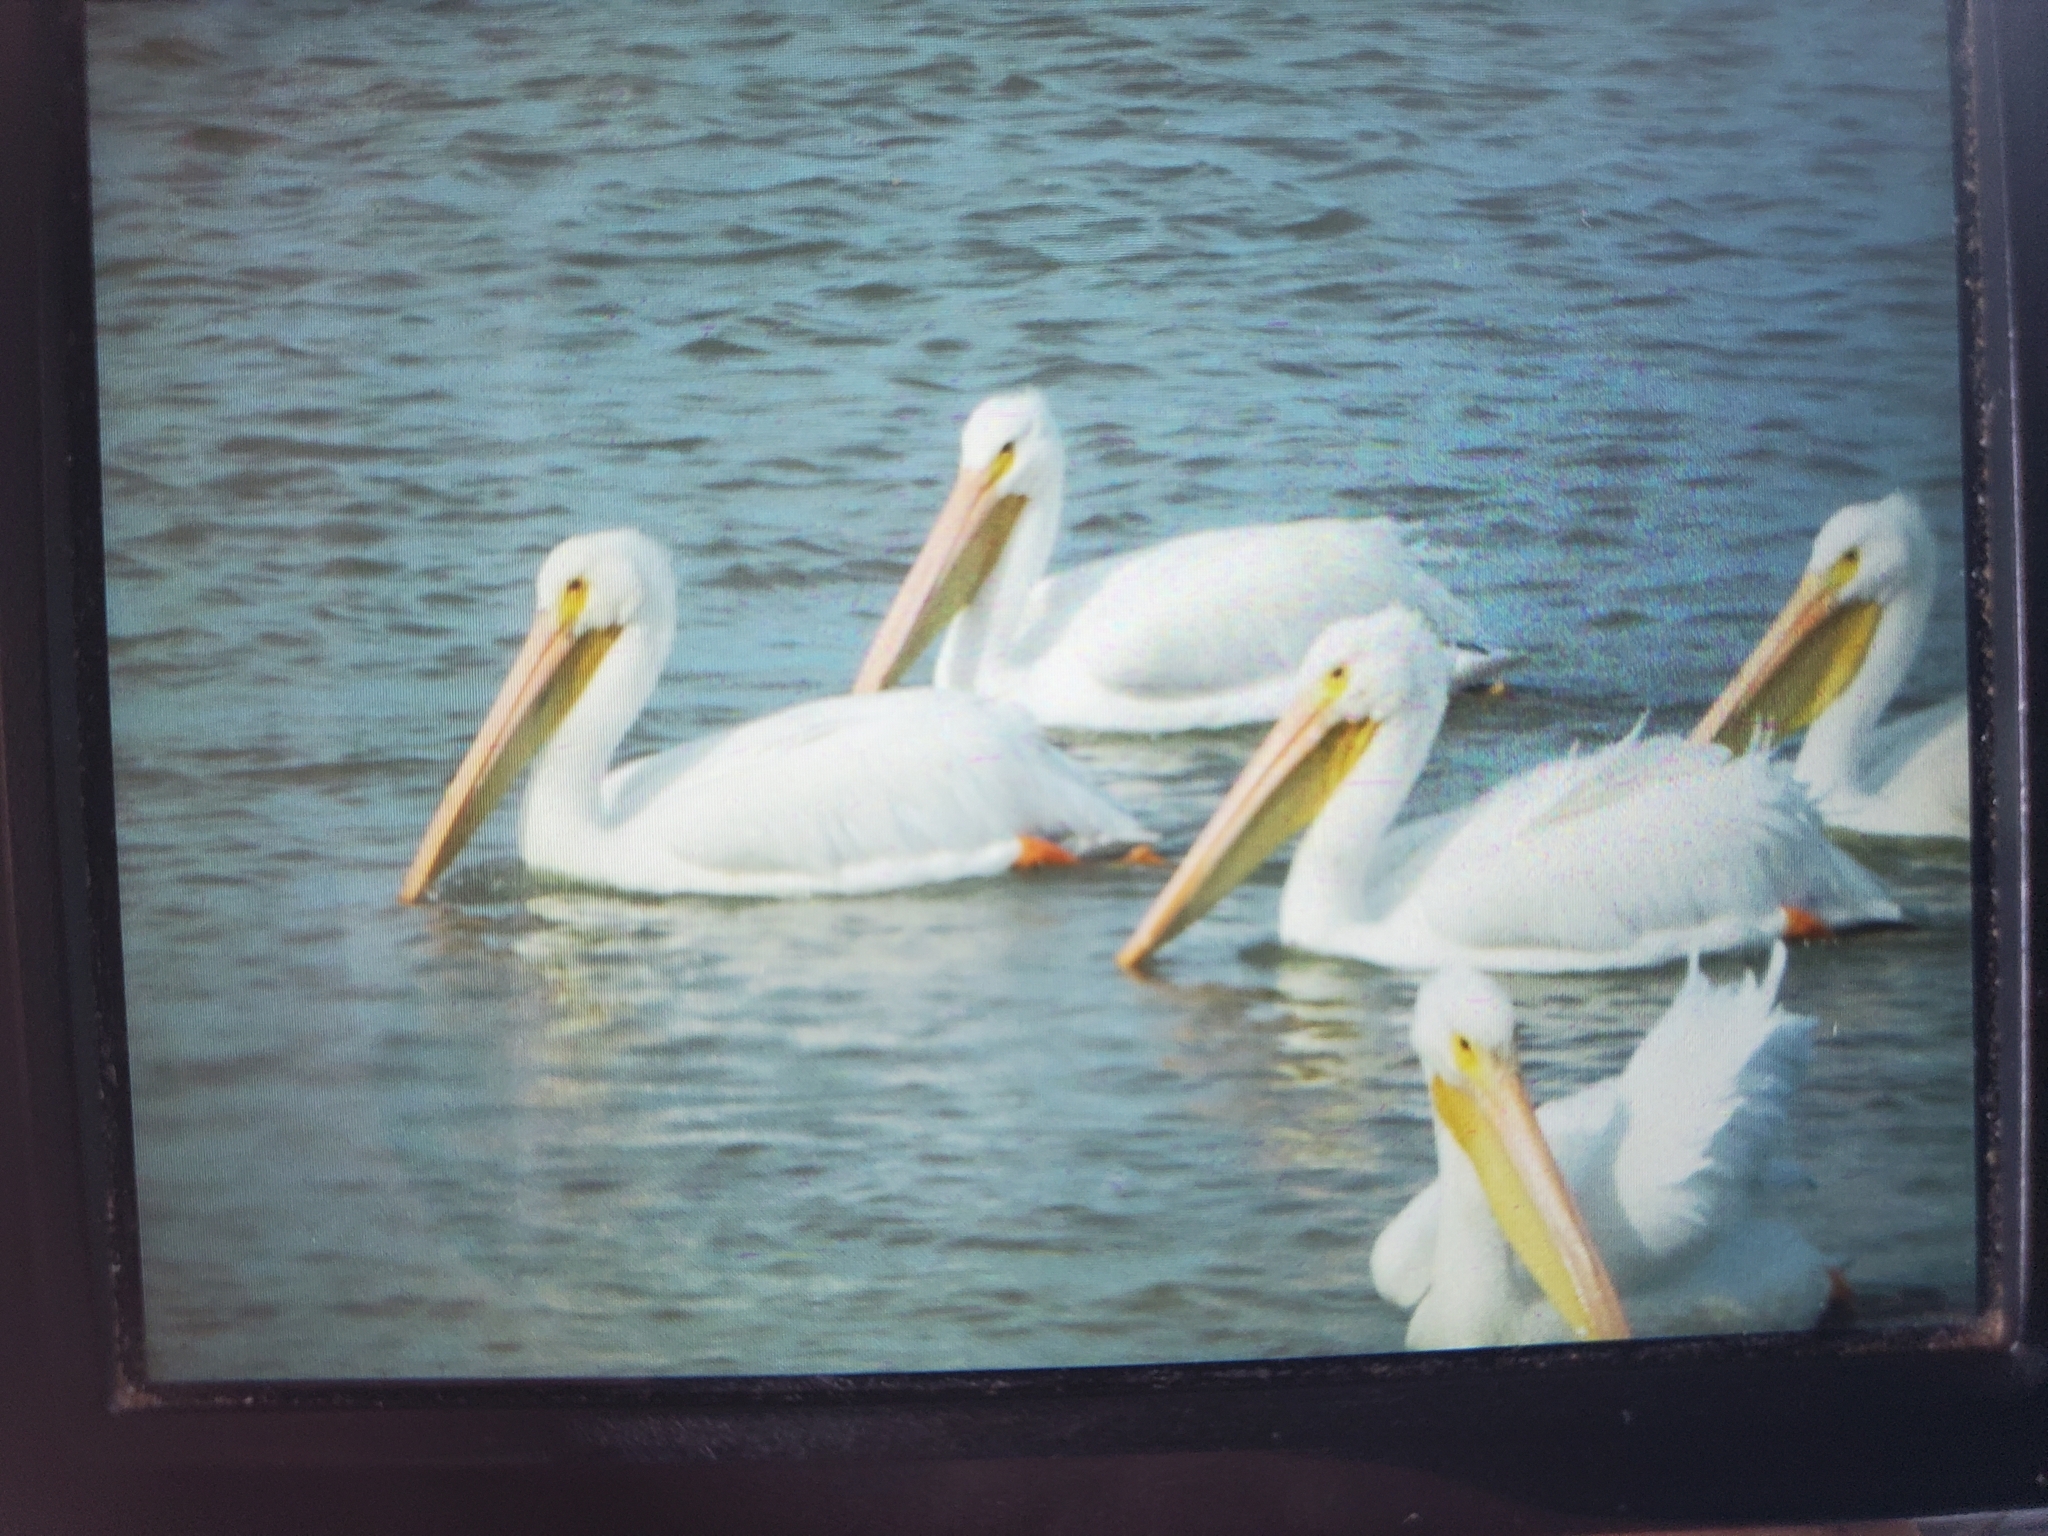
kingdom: Animalia
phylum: Chordata
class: Aves
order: Pelecaniformes
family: Pelecanidae
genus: Pelecanus
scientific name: Pelecanus erythrorhynchos
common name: American white pelican
